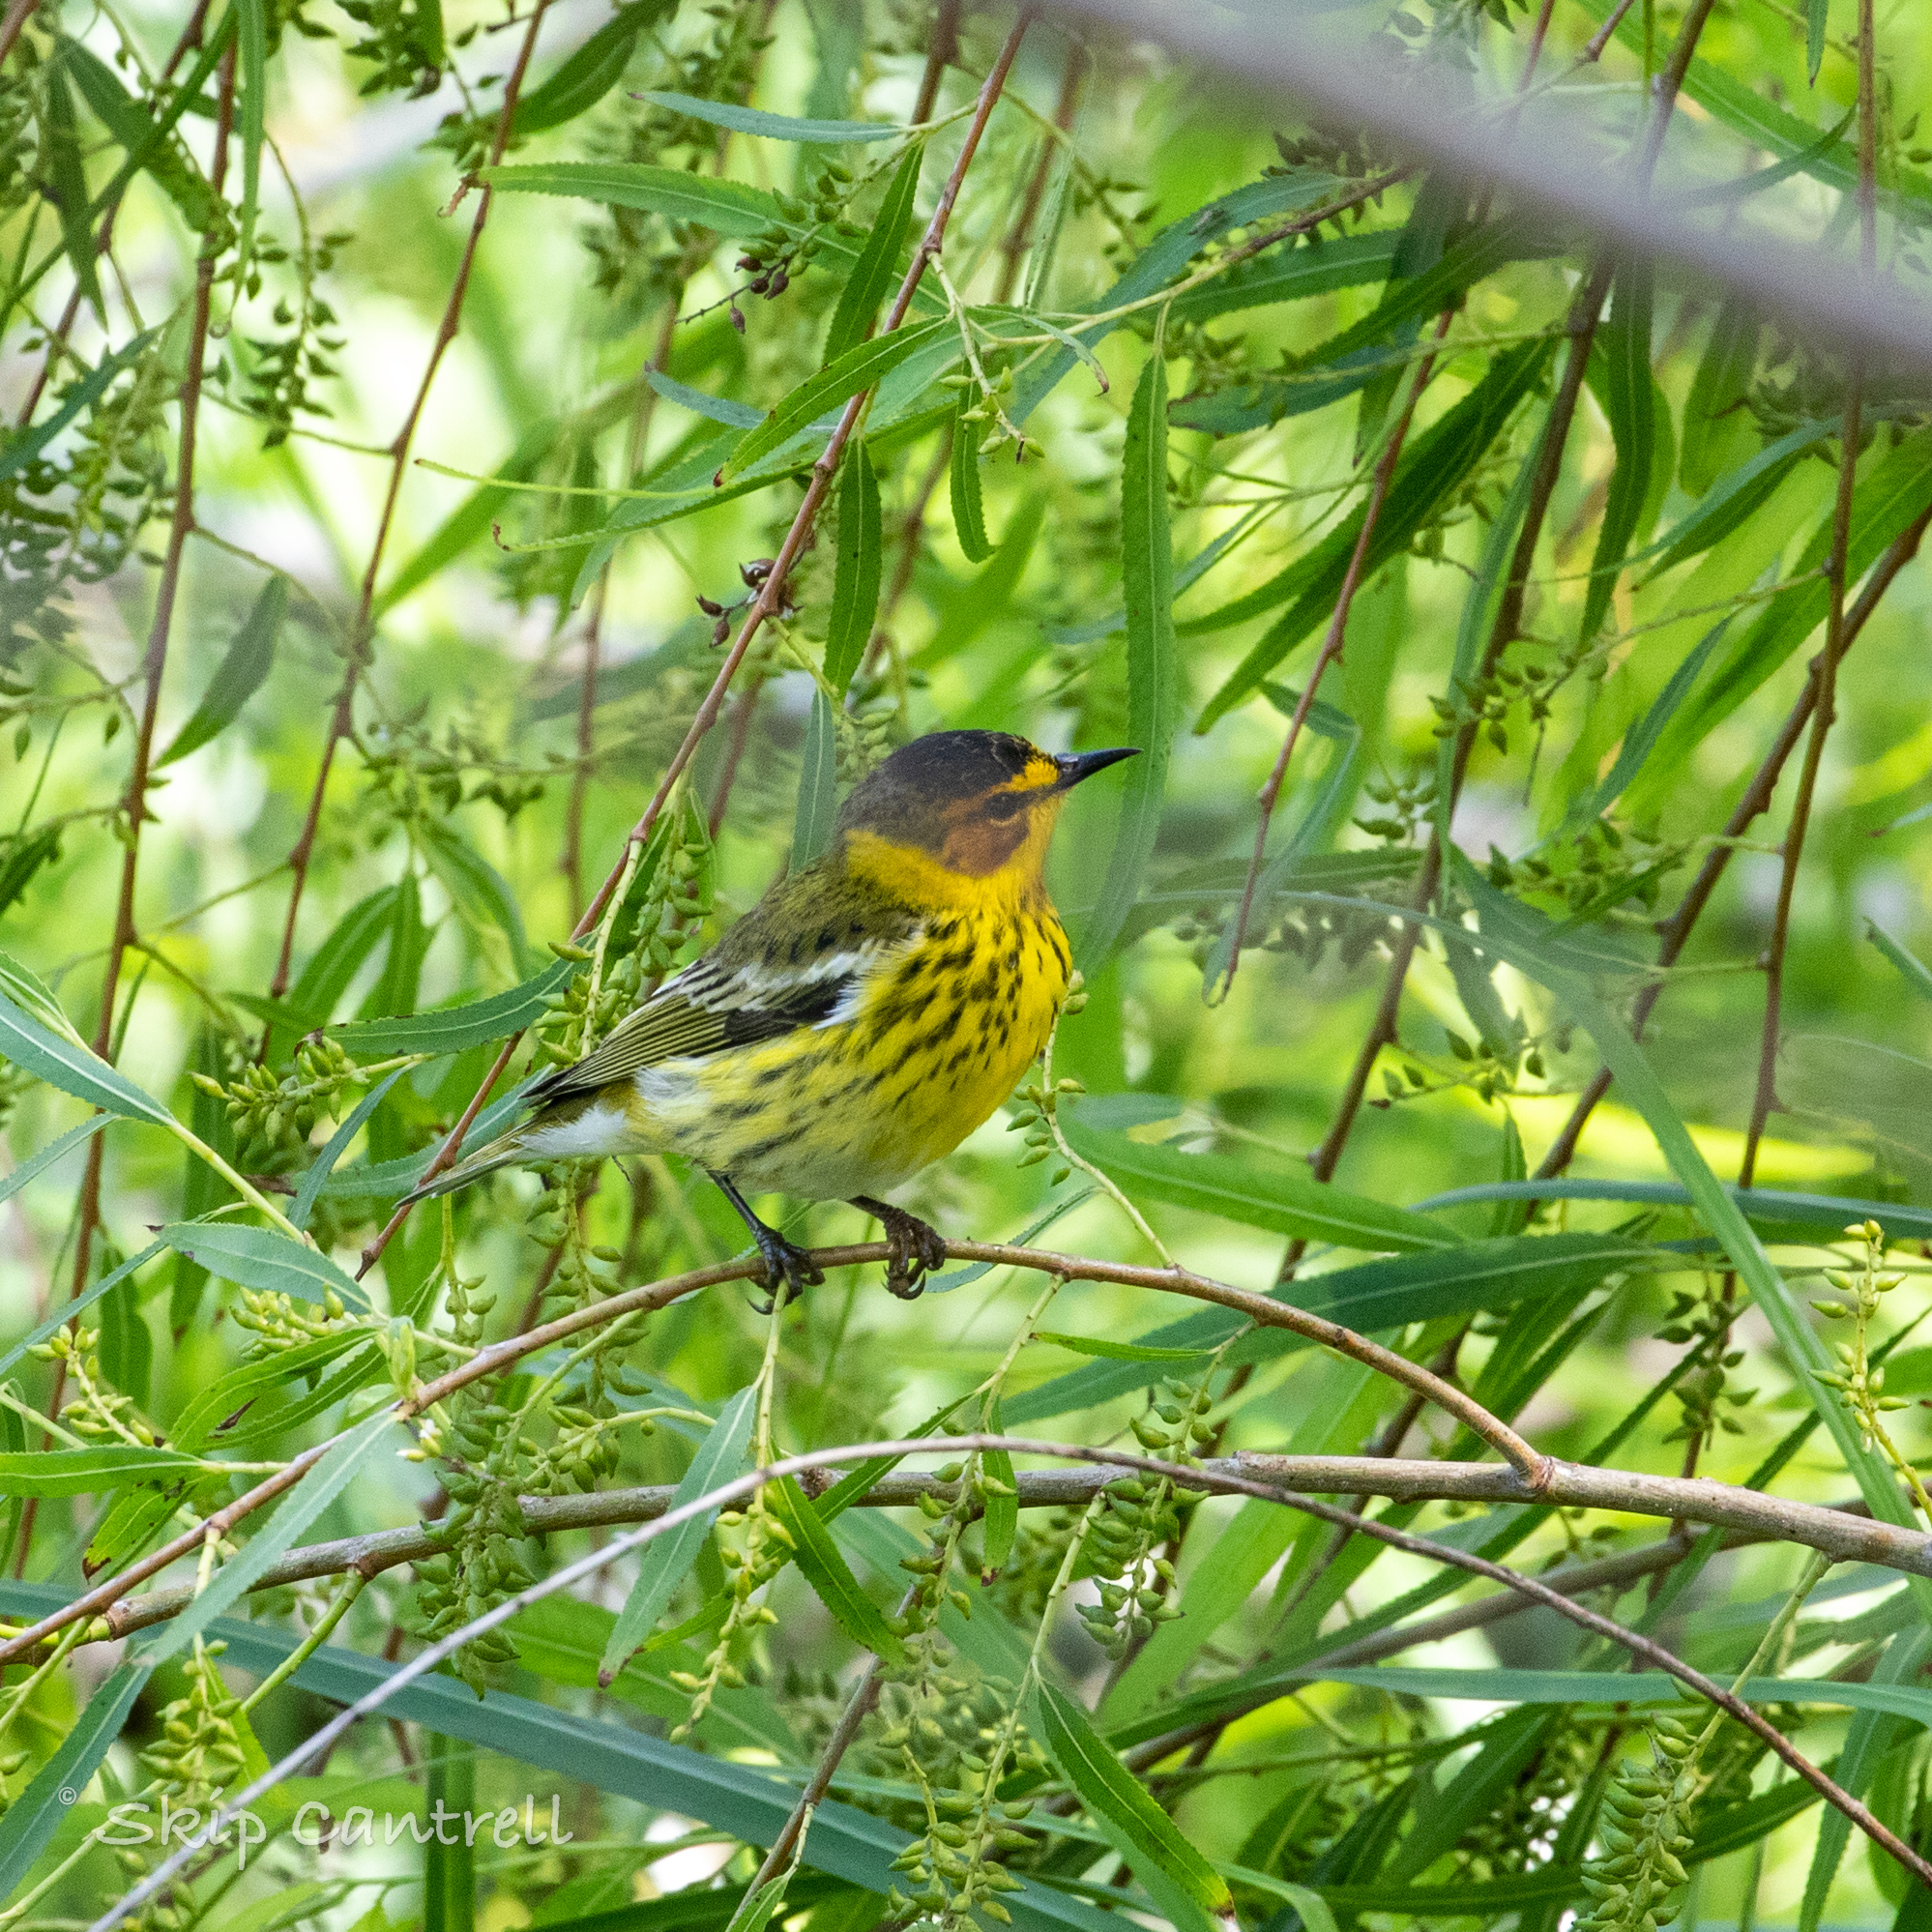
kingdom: Animalia
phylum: Chordata
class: Aves
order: Passeriformes
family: Parulidae
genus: Setophaga
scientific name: Setophaga tigrina
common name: Cape may warbler
